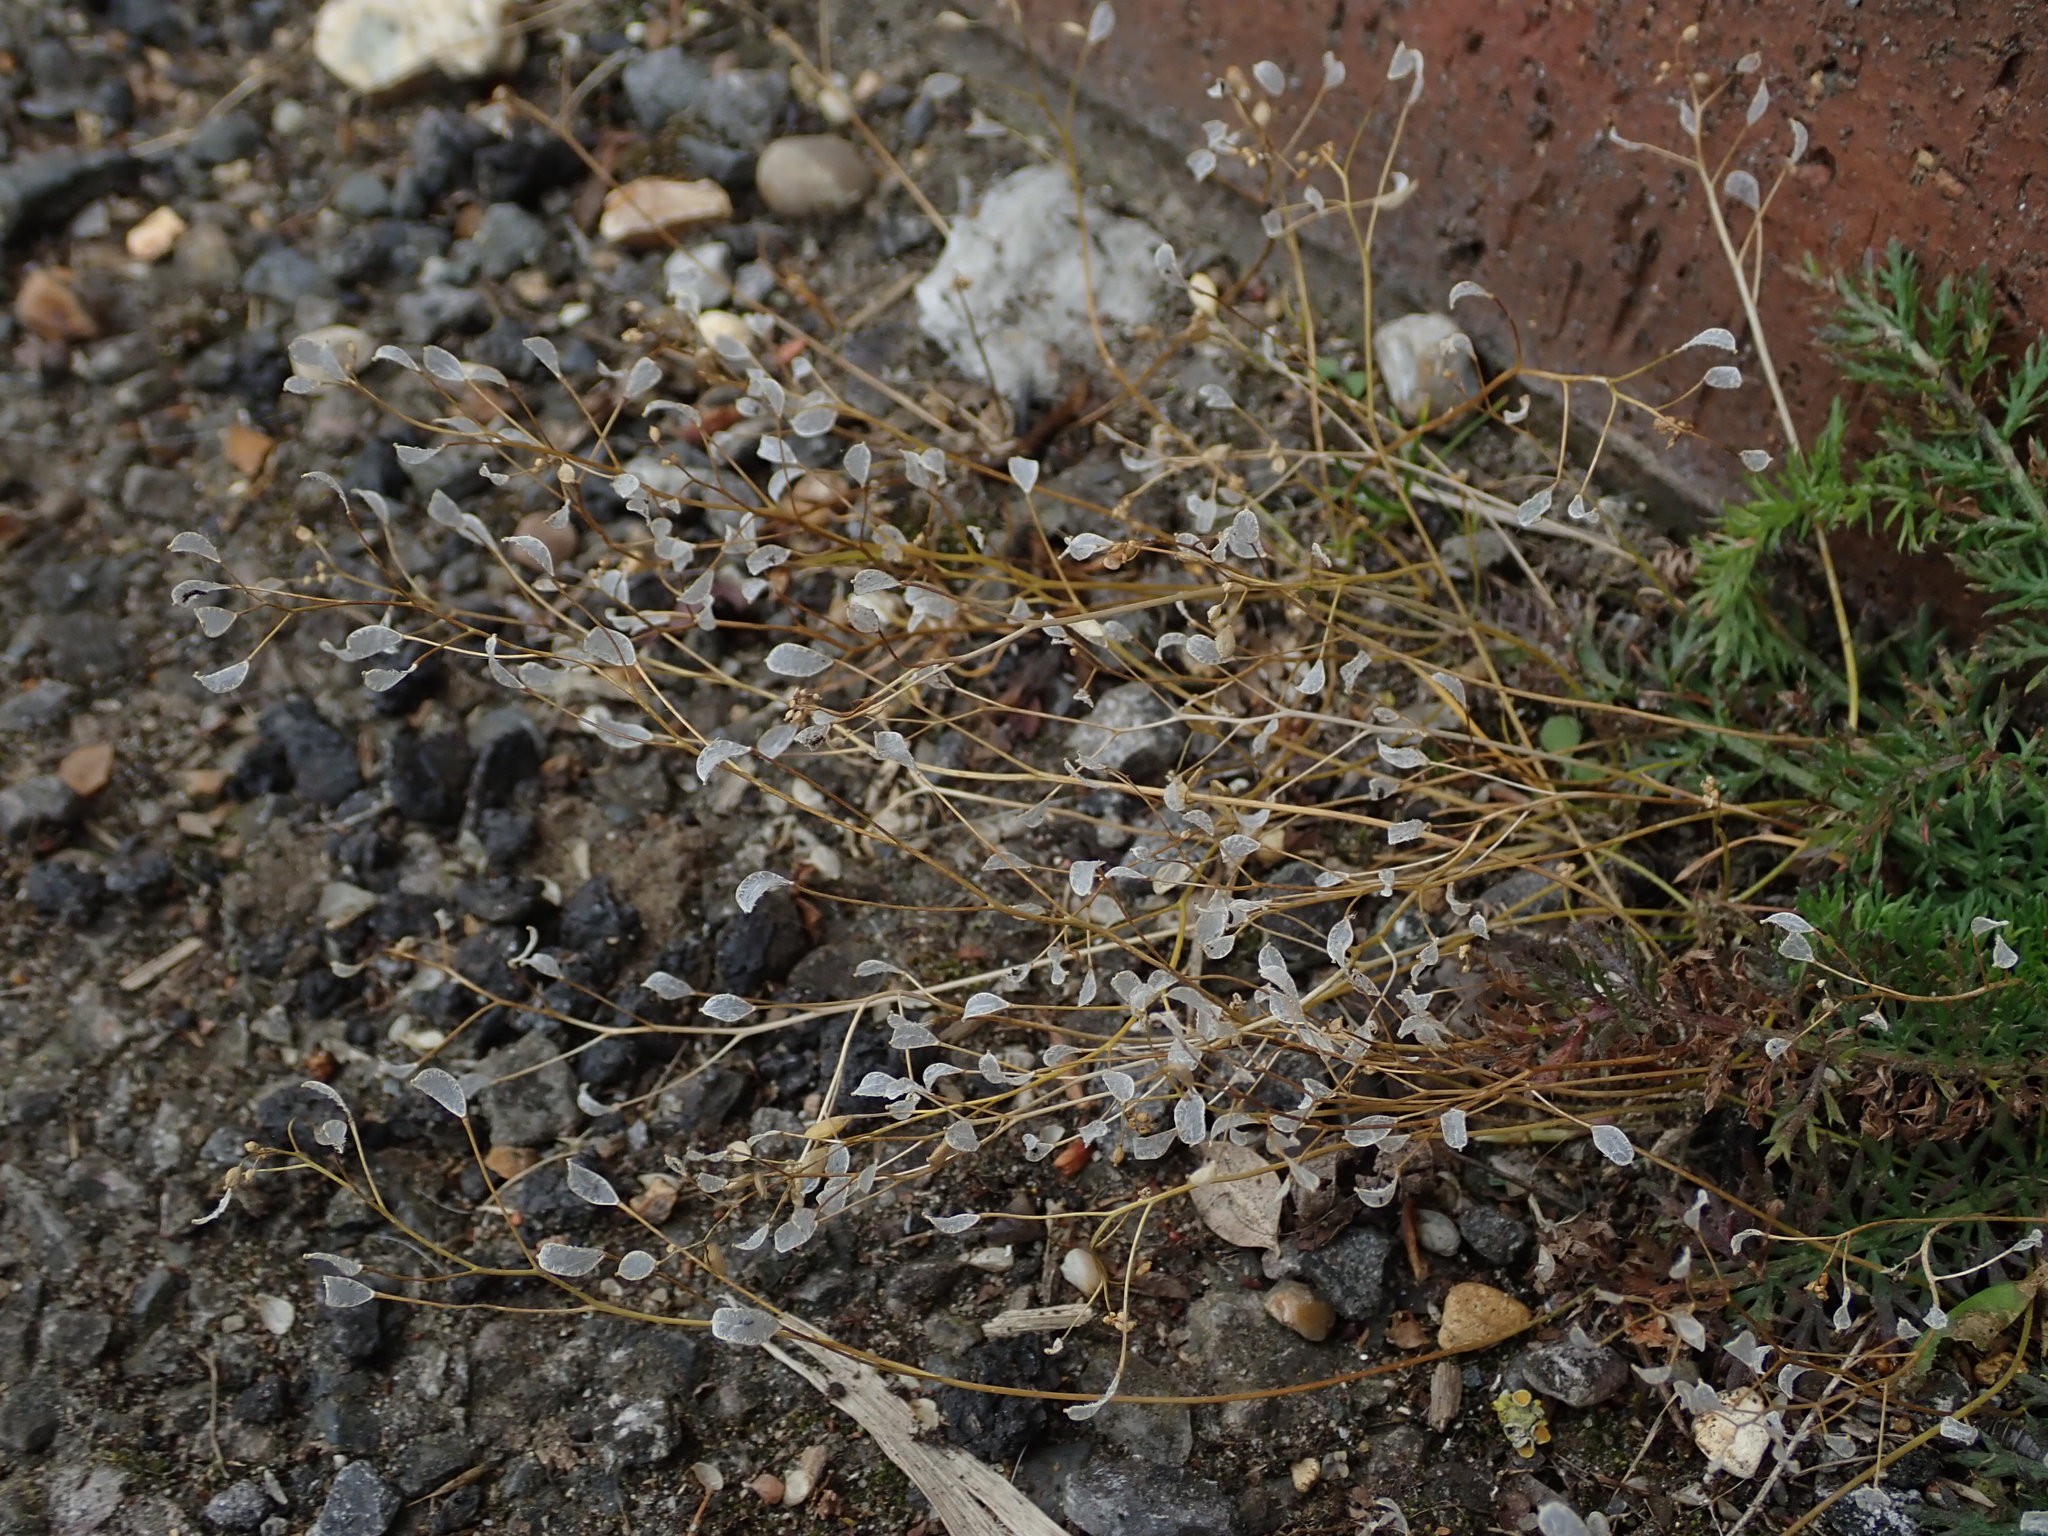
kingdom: Plantae
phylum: Tracheophyta
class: Magnoliopsida
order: Brassicales
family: Brassicaceae
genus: Draba
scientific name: Draba verna
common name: Spring draba
